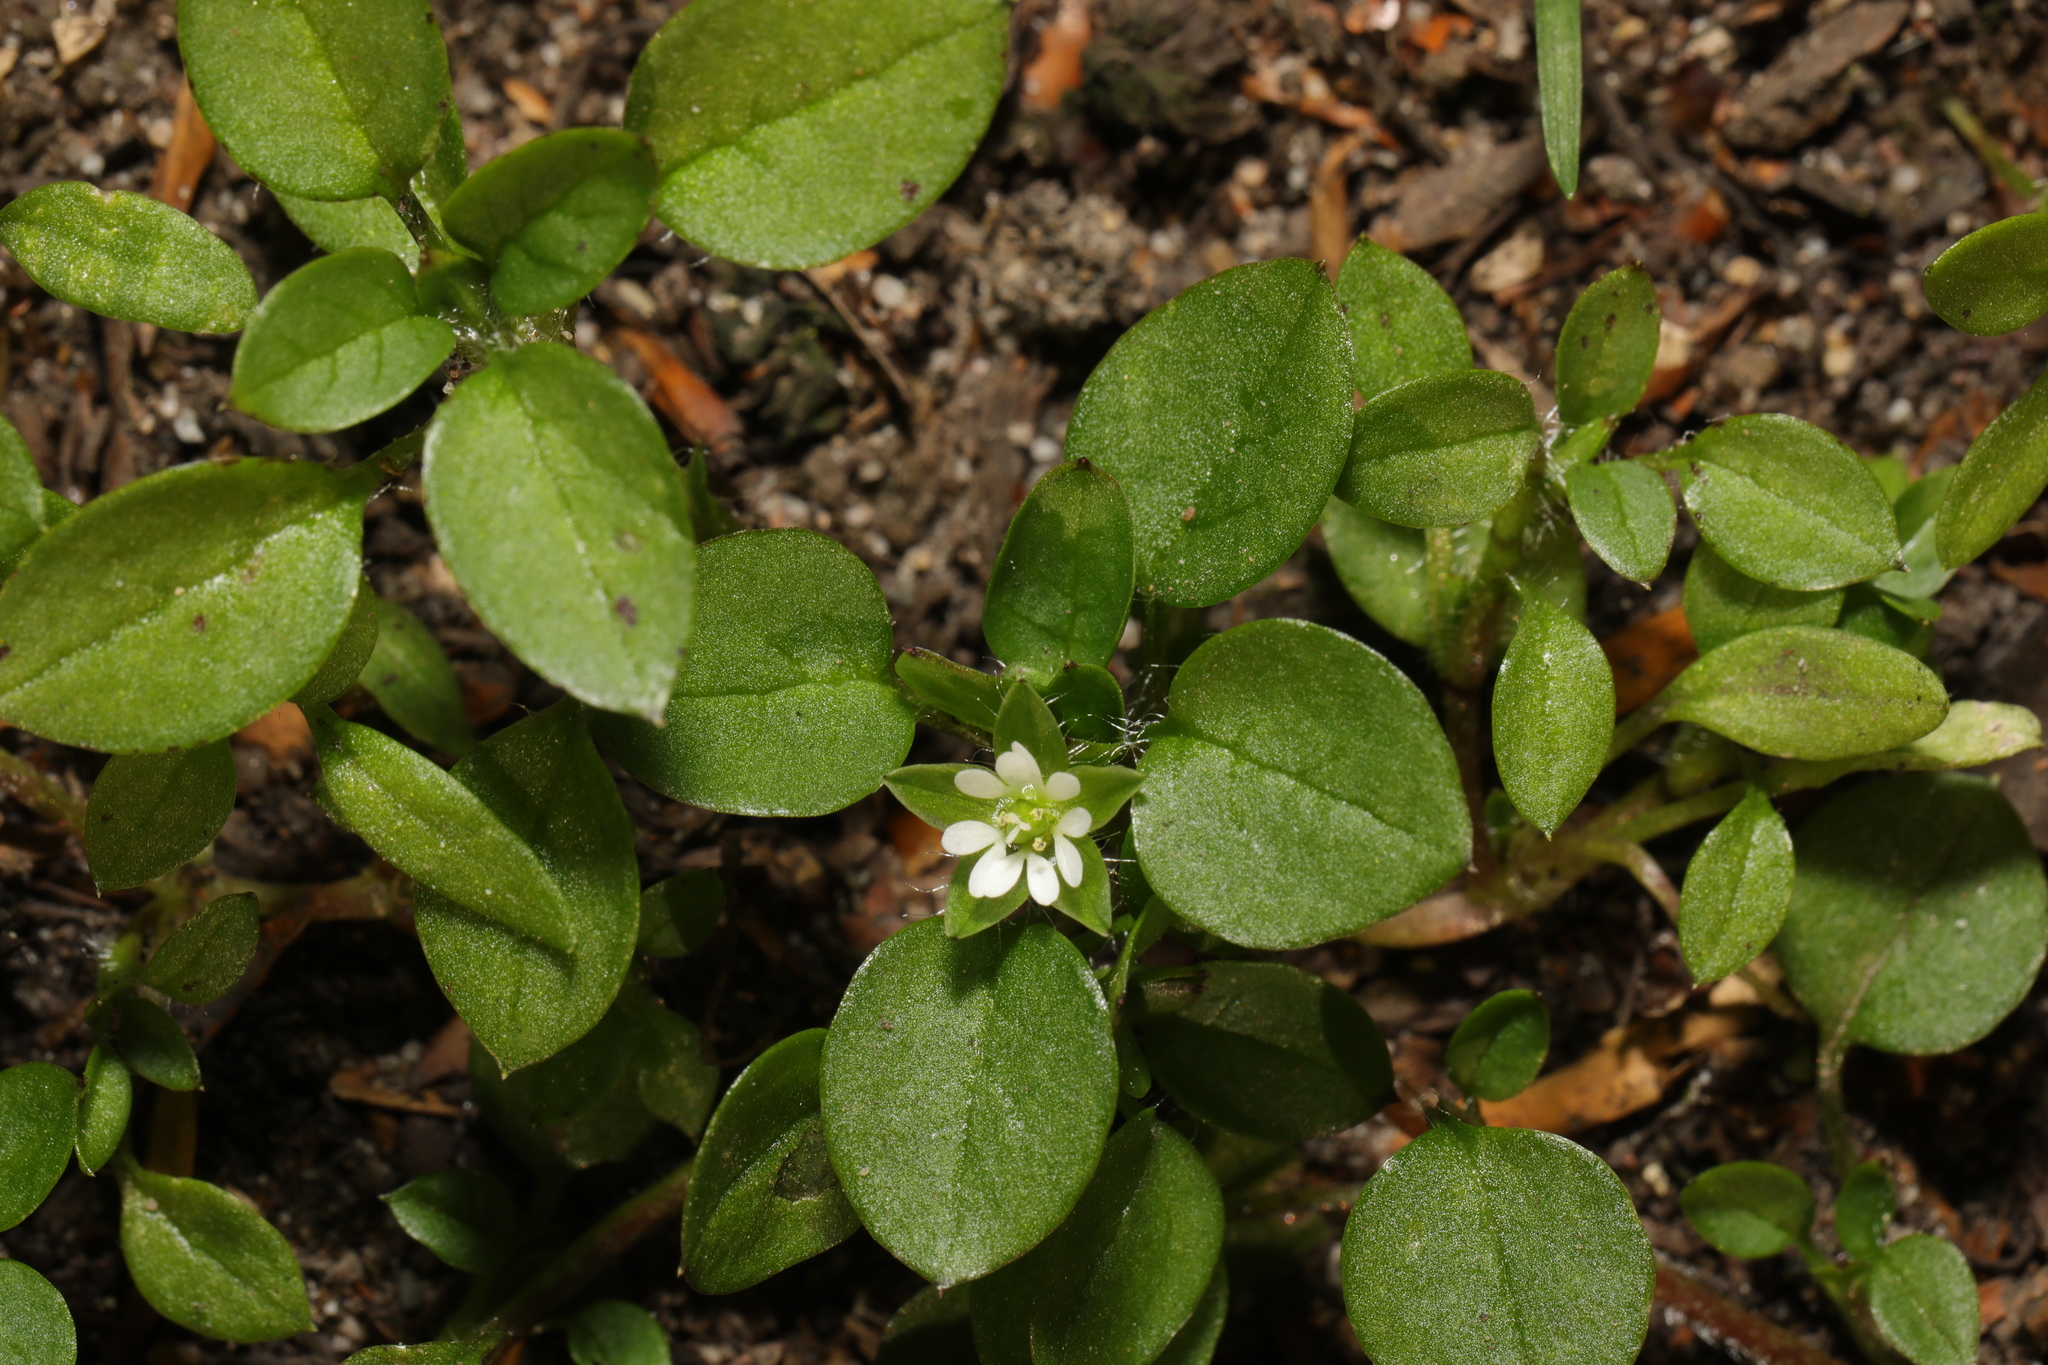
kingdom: Plantae
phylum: Tracheophyta
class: Magnoliopsida
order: Caryophyllales
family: Caryophyllaceae
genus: Stellaria
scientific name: Stellaria media
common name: Common chickweed
